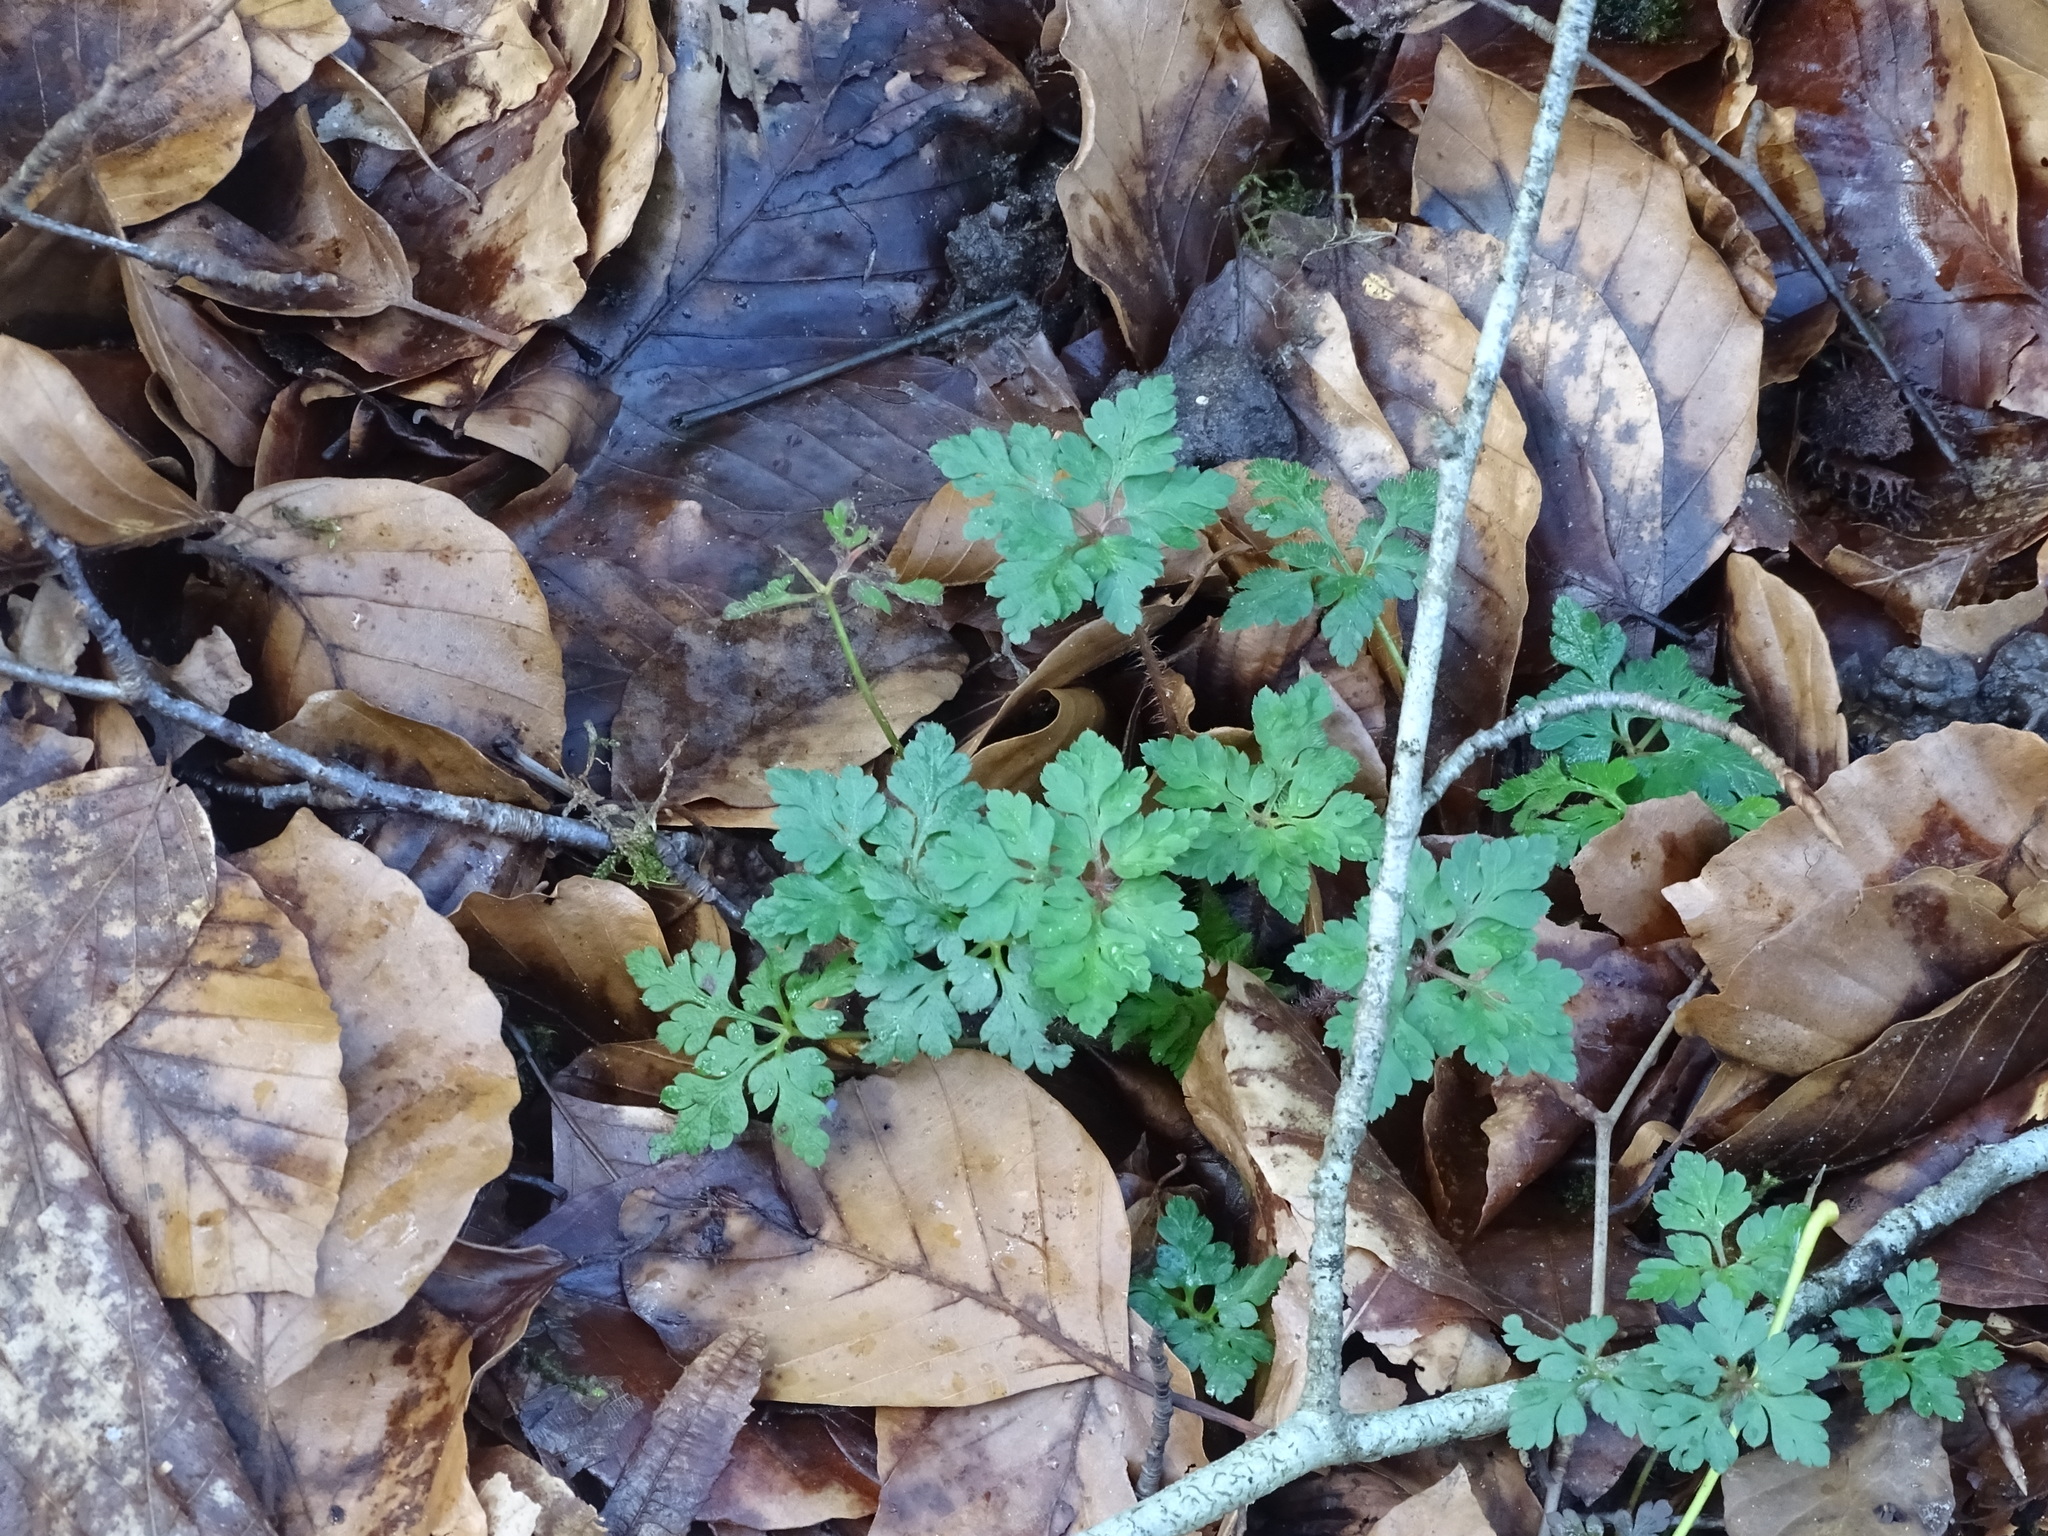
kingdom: Plantae
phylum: Tracheophyta
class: Magnoliopsida
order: Geraniales
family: Geraniaceae
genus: Geranium
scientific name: Geranium robertianum
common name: Herb-robert
